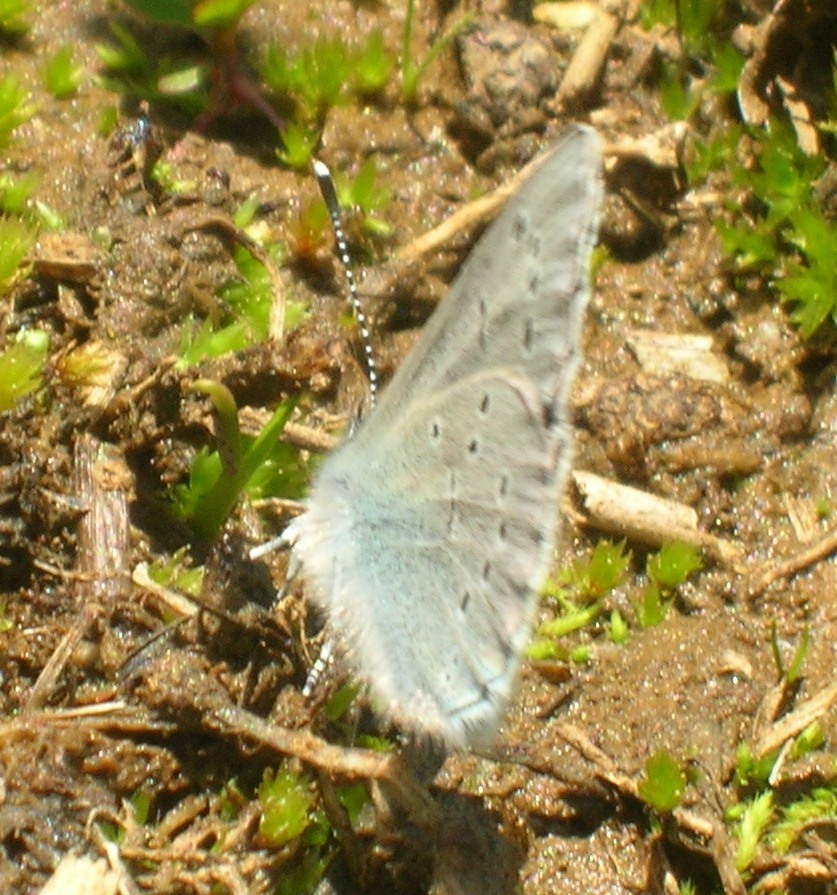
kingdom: Animalia
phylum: Arthropoda
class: Insecta
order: Lepidoptera
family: Lycaenidae
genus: Glaucopsyche
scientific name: Glaucopsyche lygdamus
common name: Silvery blue
